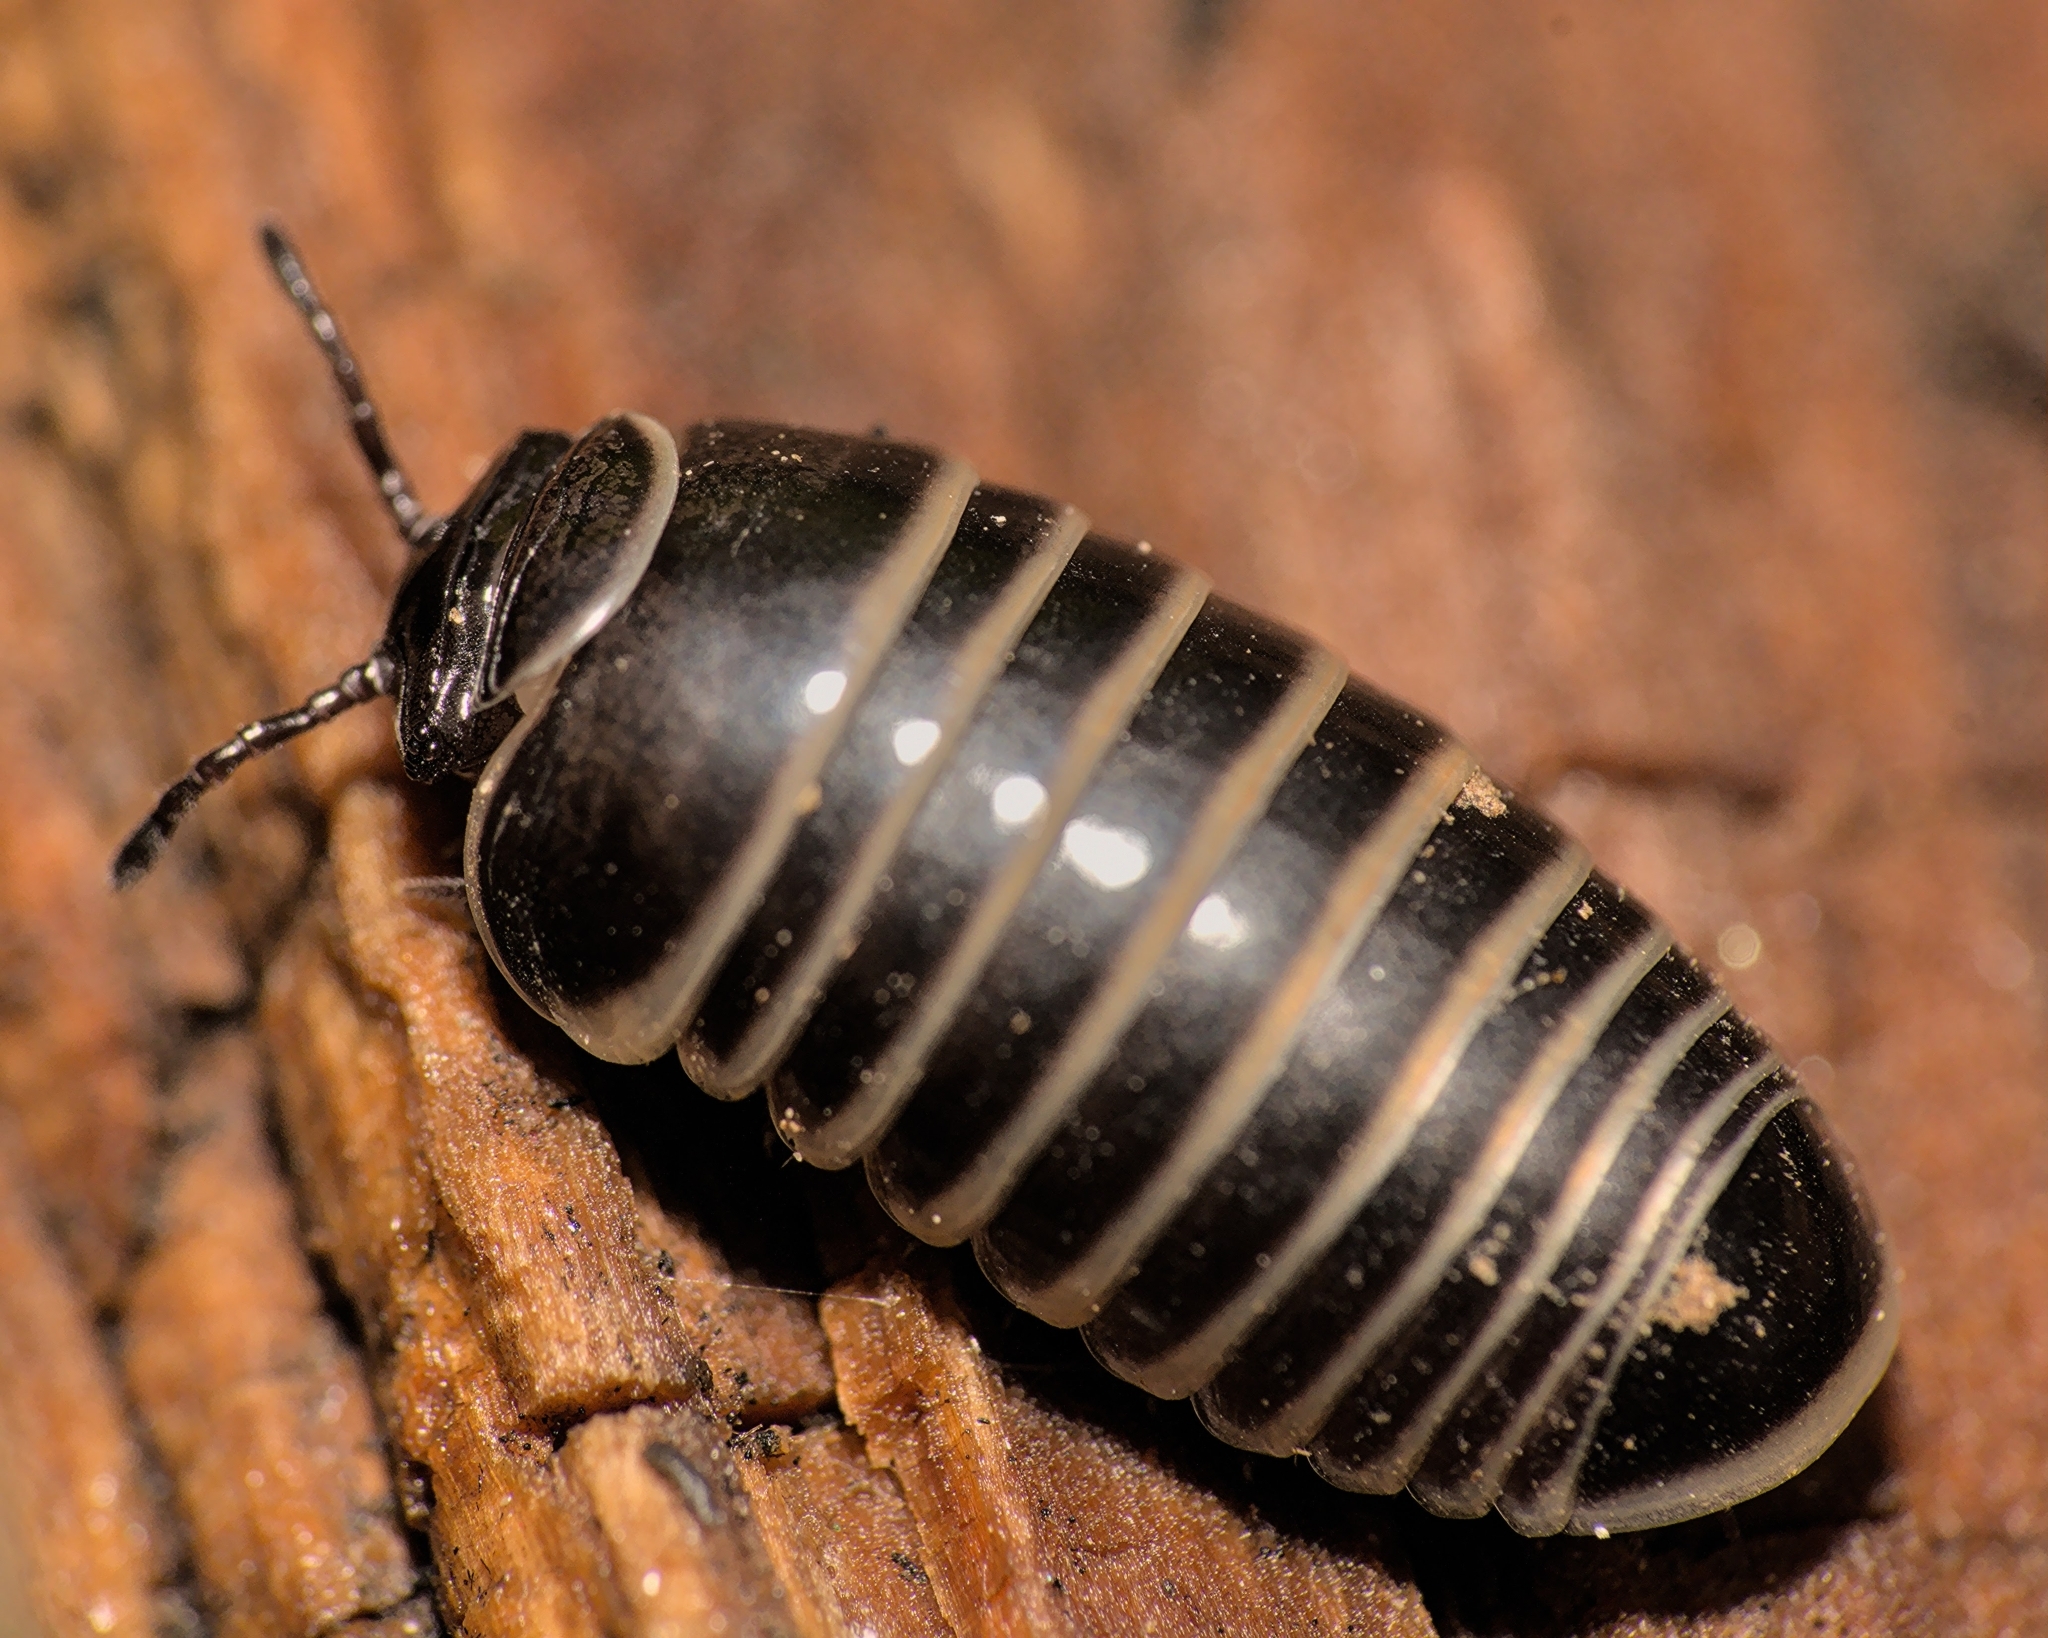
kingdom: Animalia
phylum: Arthropoda
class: Diplopoda
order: Glomerida
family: Glomeridae
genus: Glomeris
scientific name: Glomeris marginata
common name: Bordered pill millipede
